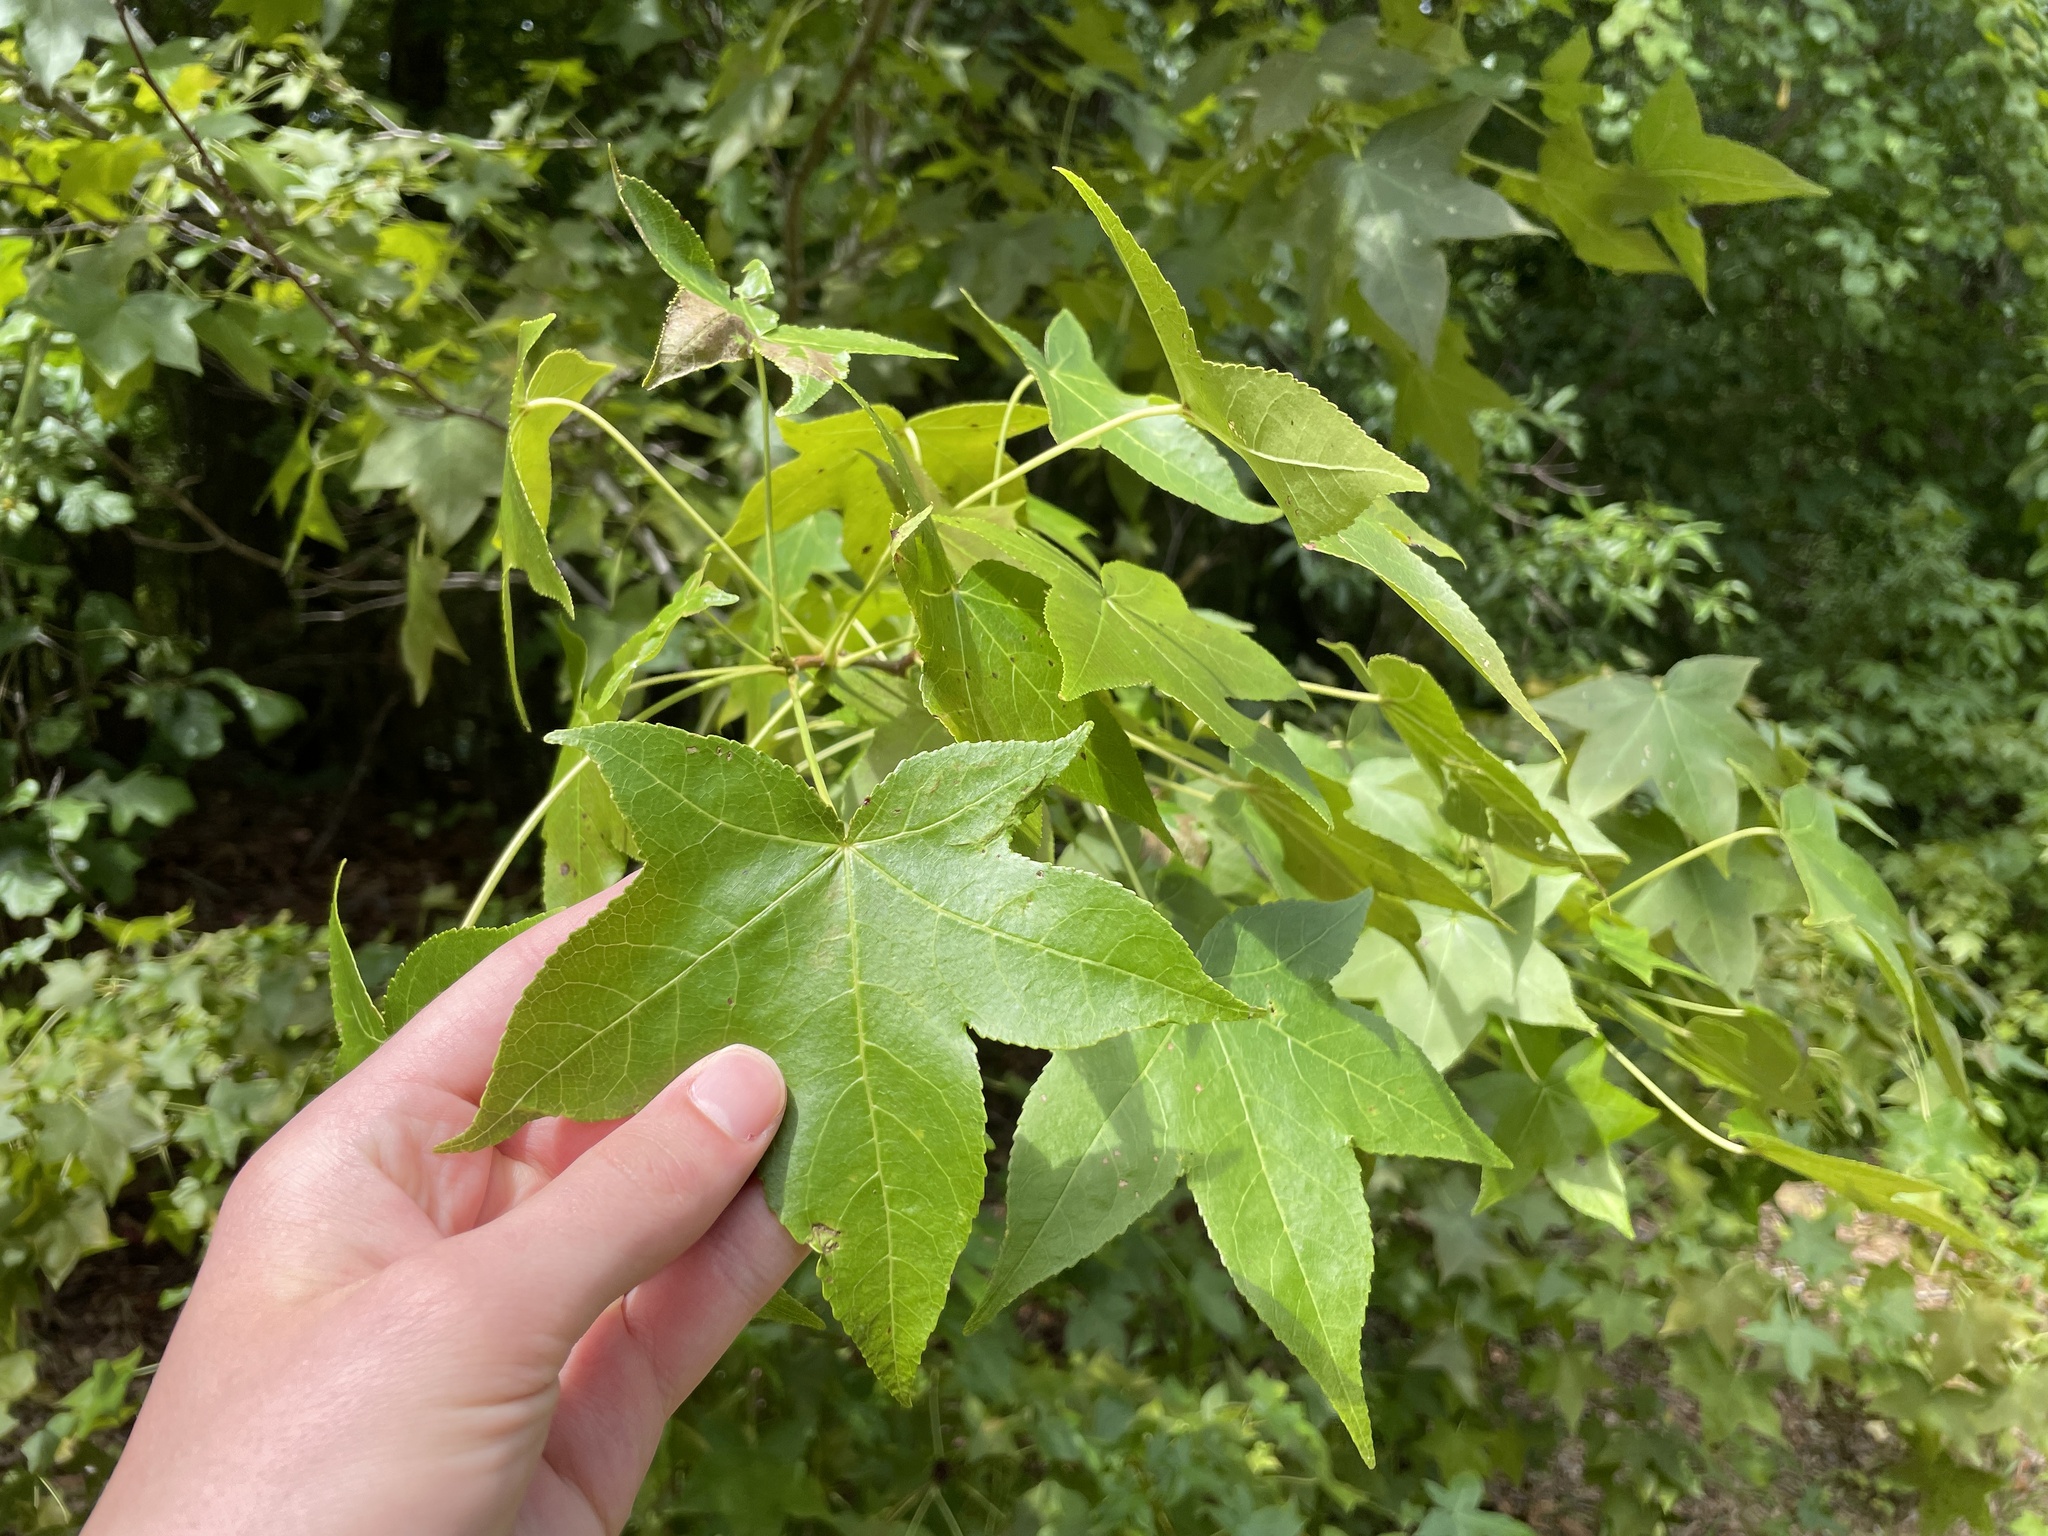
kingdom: Plantae
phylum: Tracheophyta
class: Magnoliopsida
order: Saxifragales
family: Altingiaceae
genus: Liquidambar
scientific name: Liquidambar styraciflua
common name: Sweet gum
